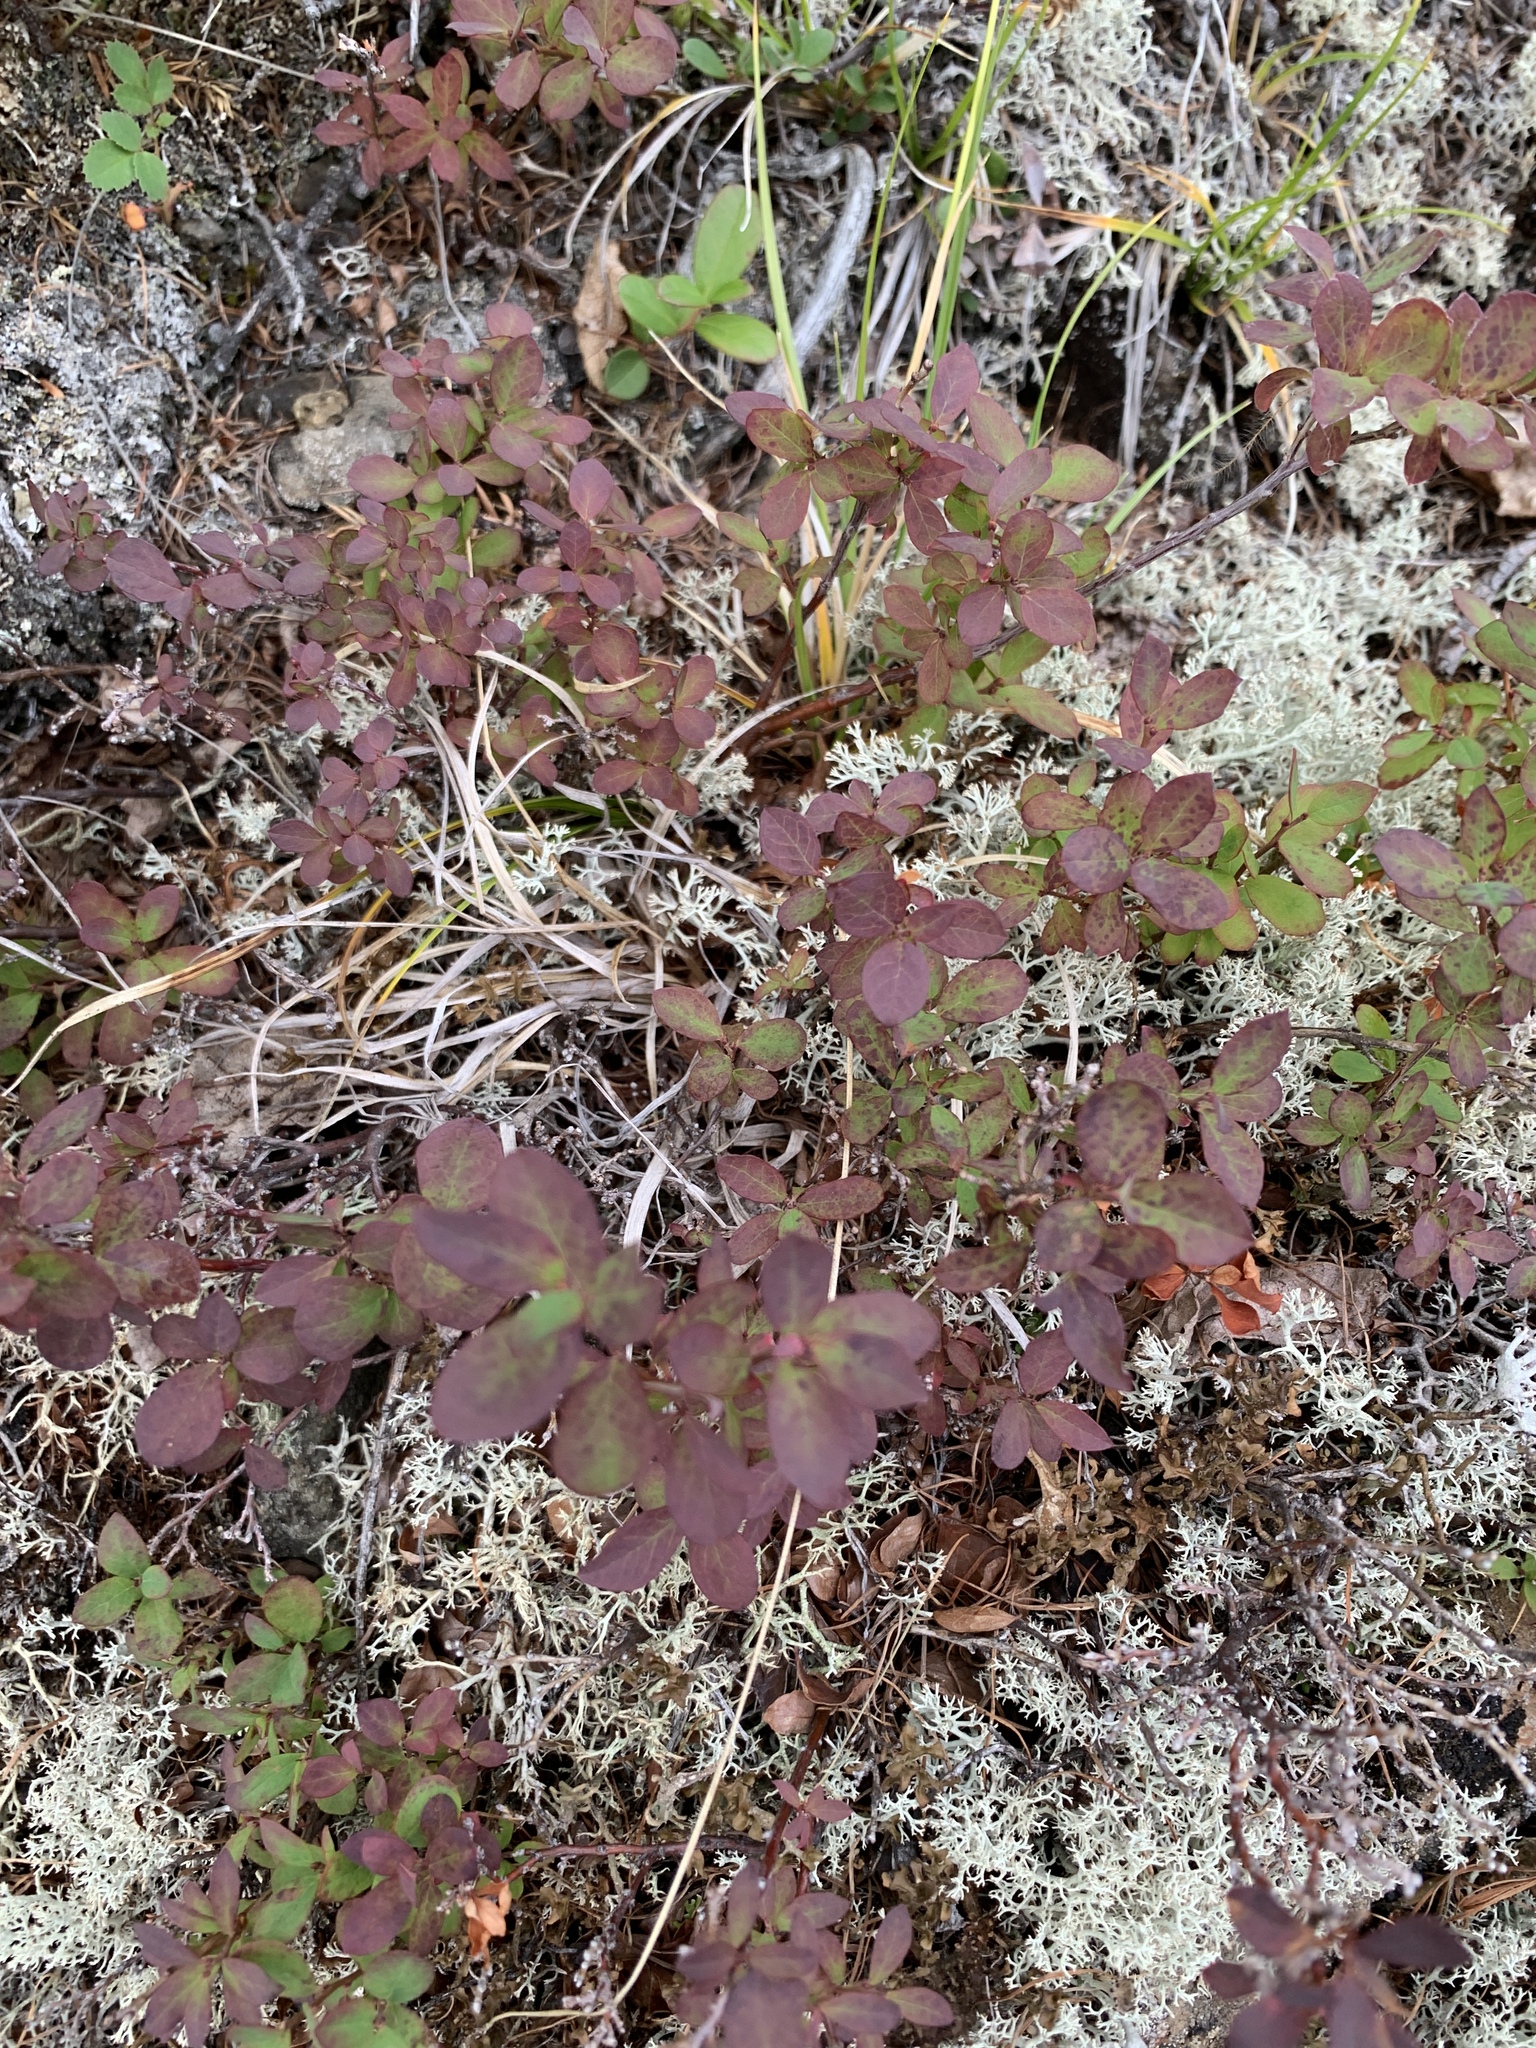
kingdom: Plantae
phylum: Tracheophyta
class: Magnoliopsida
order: Ericales
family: Ericaceae
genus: Vaccinium
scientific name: Vaccinium uliginosum
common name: Bog bilberry
